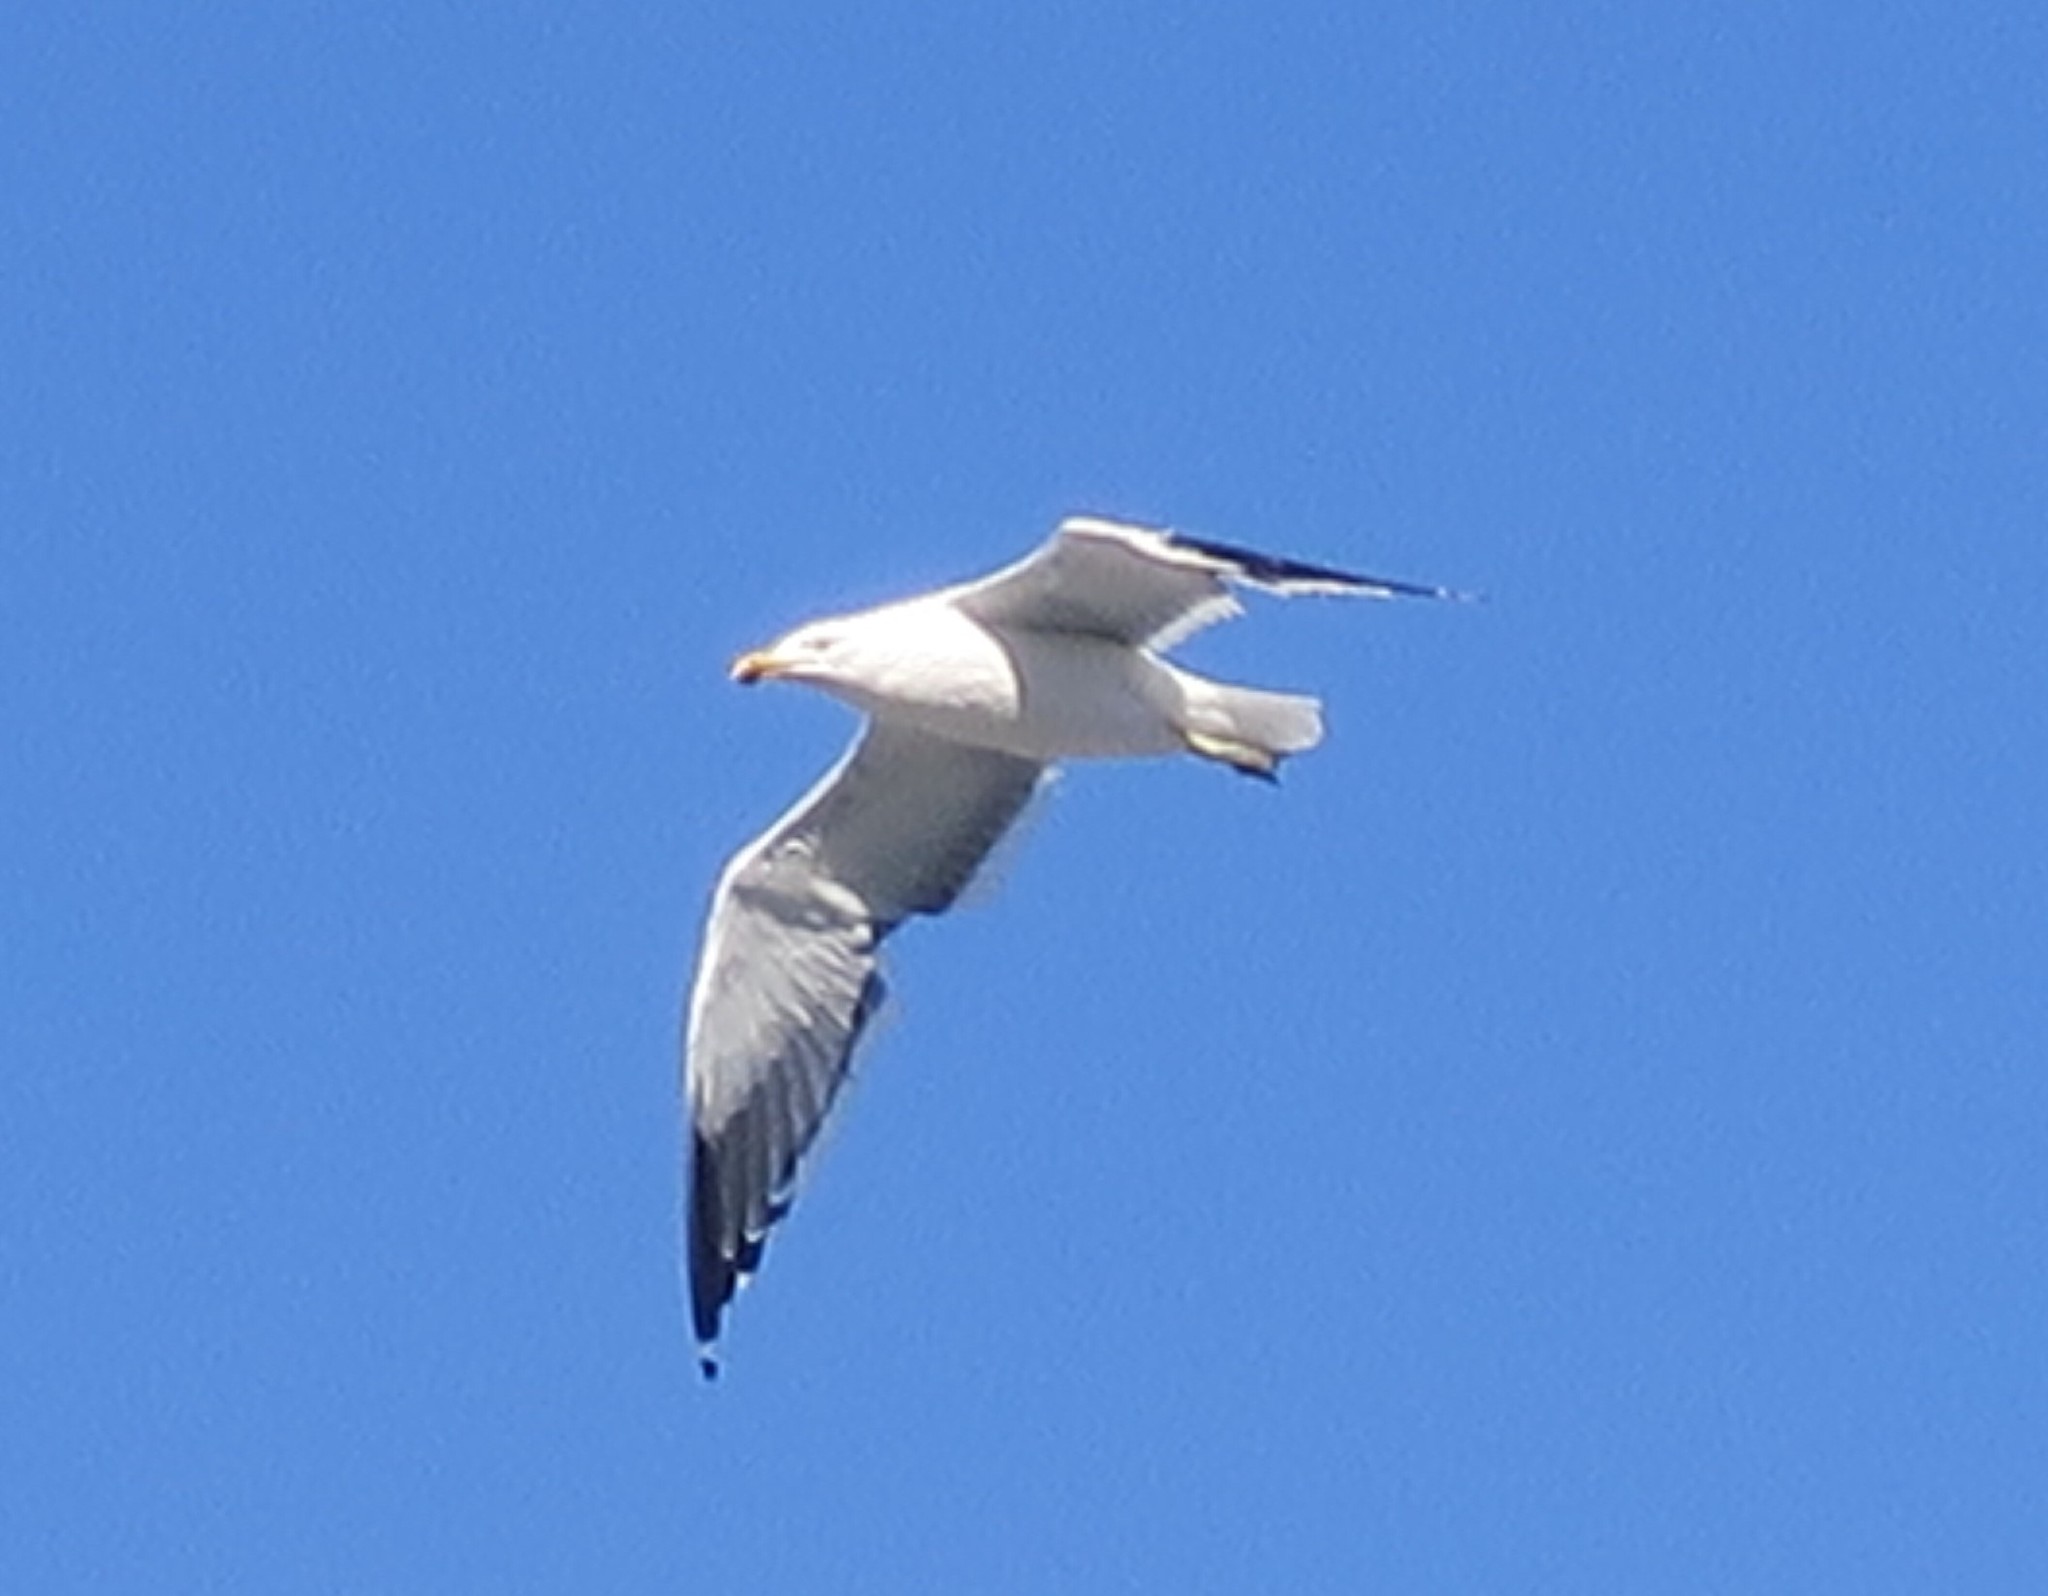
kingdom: Animalia
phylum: Chordata
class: Aves
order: Charadriiformes
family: Laridae
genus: Larus
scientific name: Larus dominicanus
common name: Kelp gull
